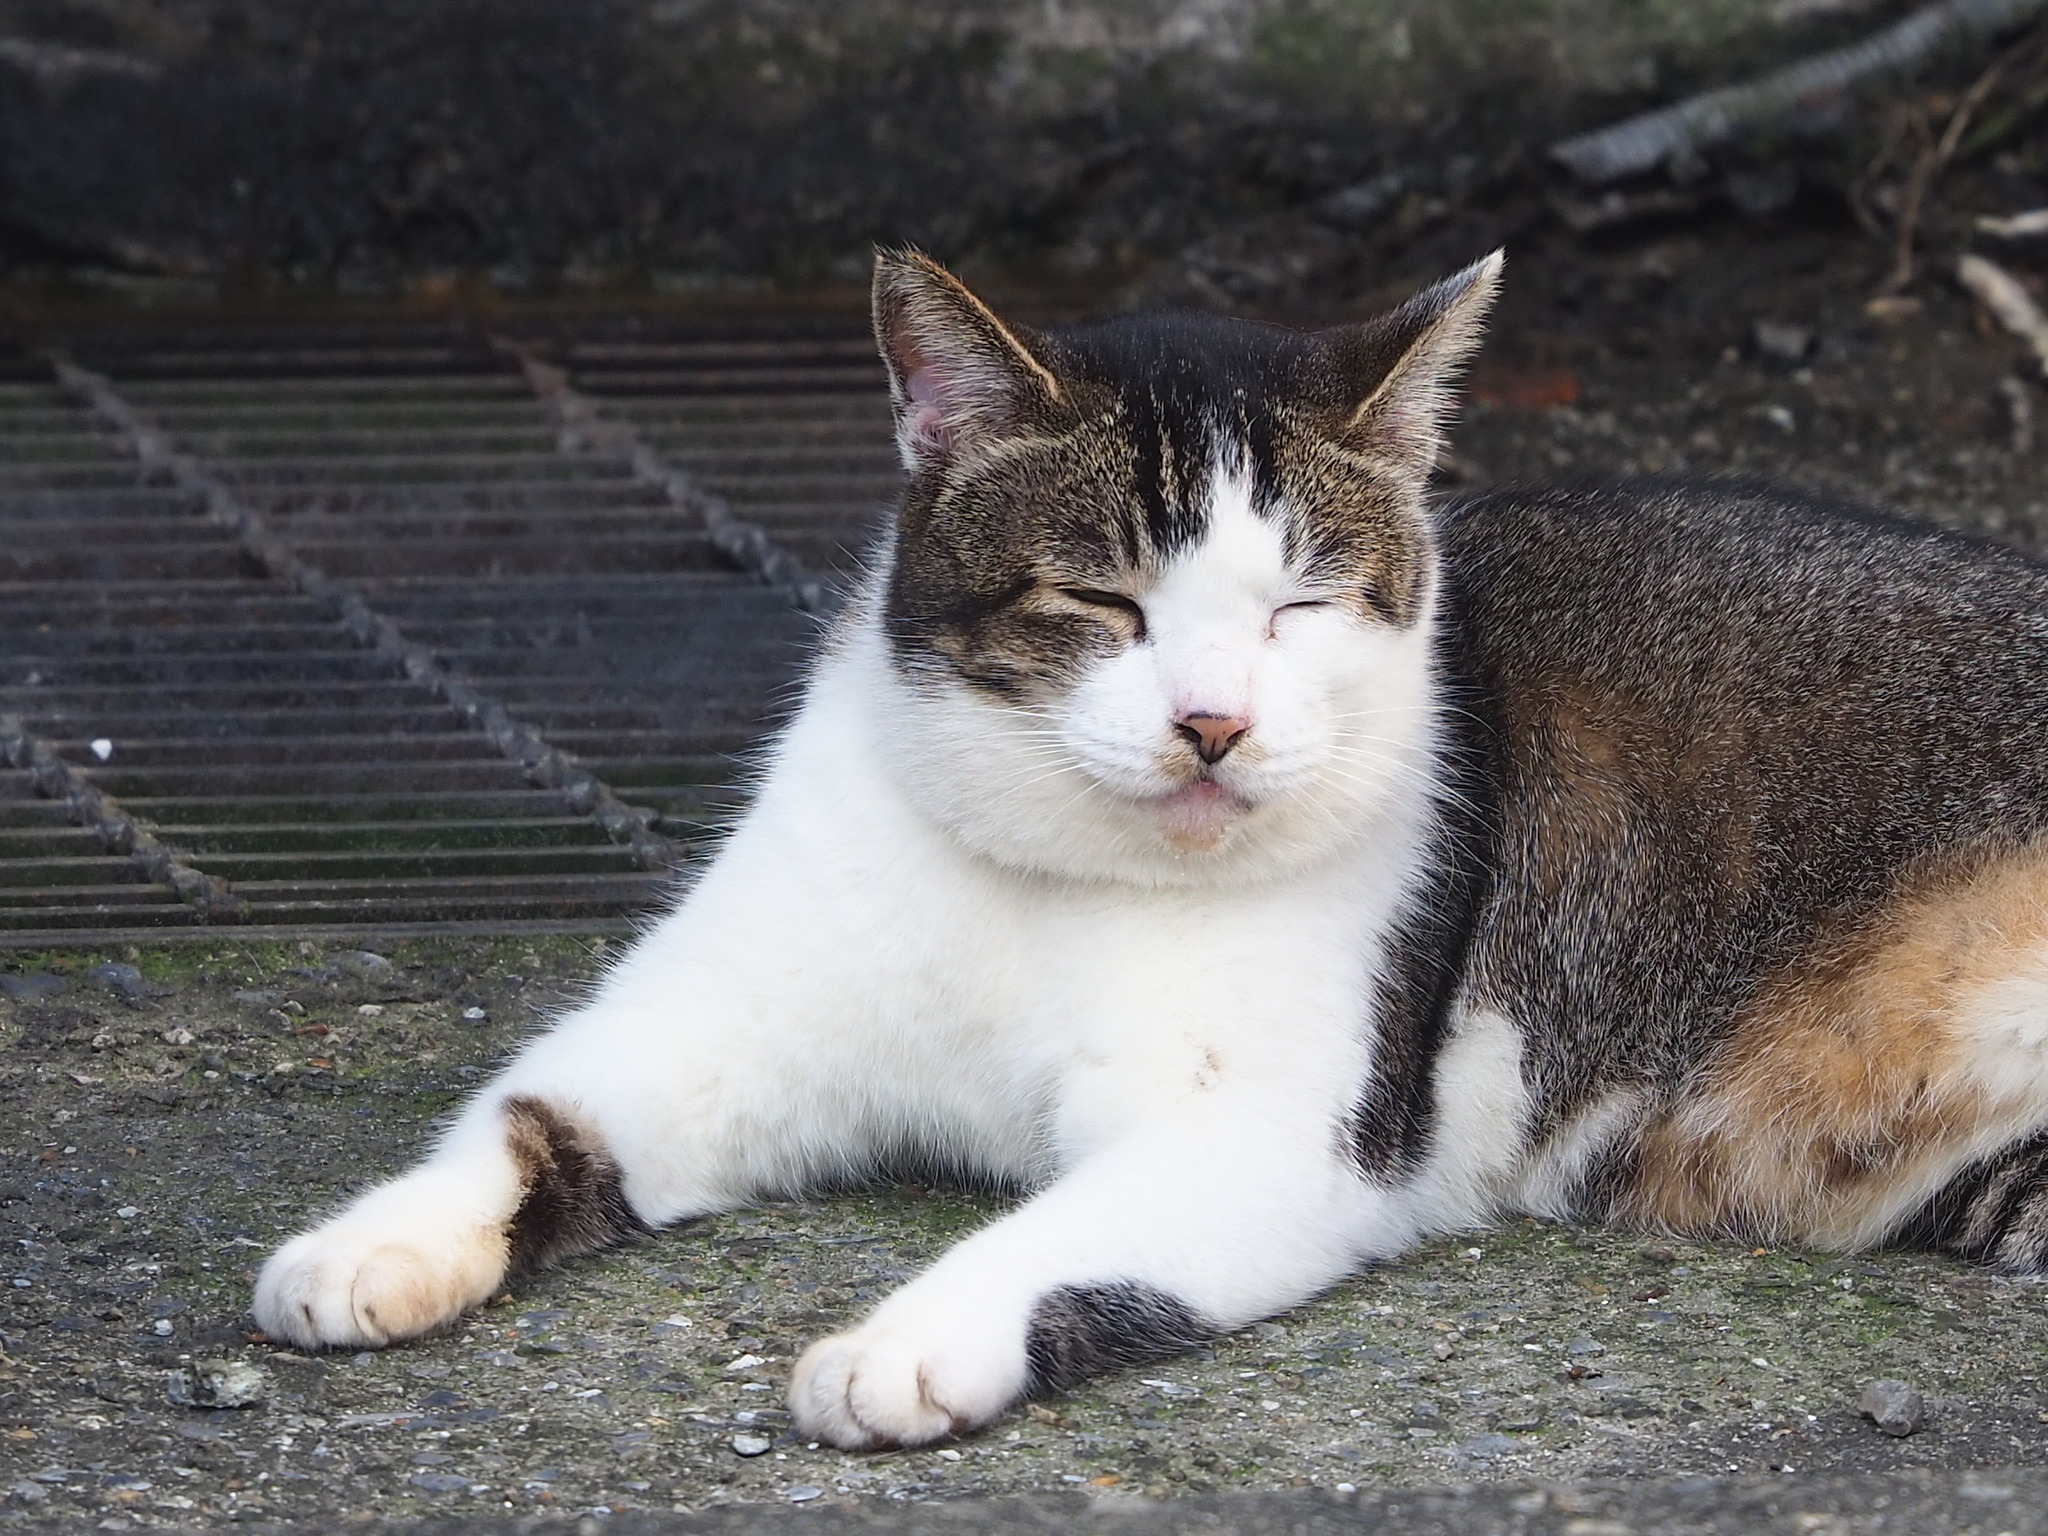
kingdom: Animalia
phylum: Chordata
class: Mammalia
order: Carnivora
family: Felidae
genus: Felis
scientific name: Felis catus
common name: Domestic cat
